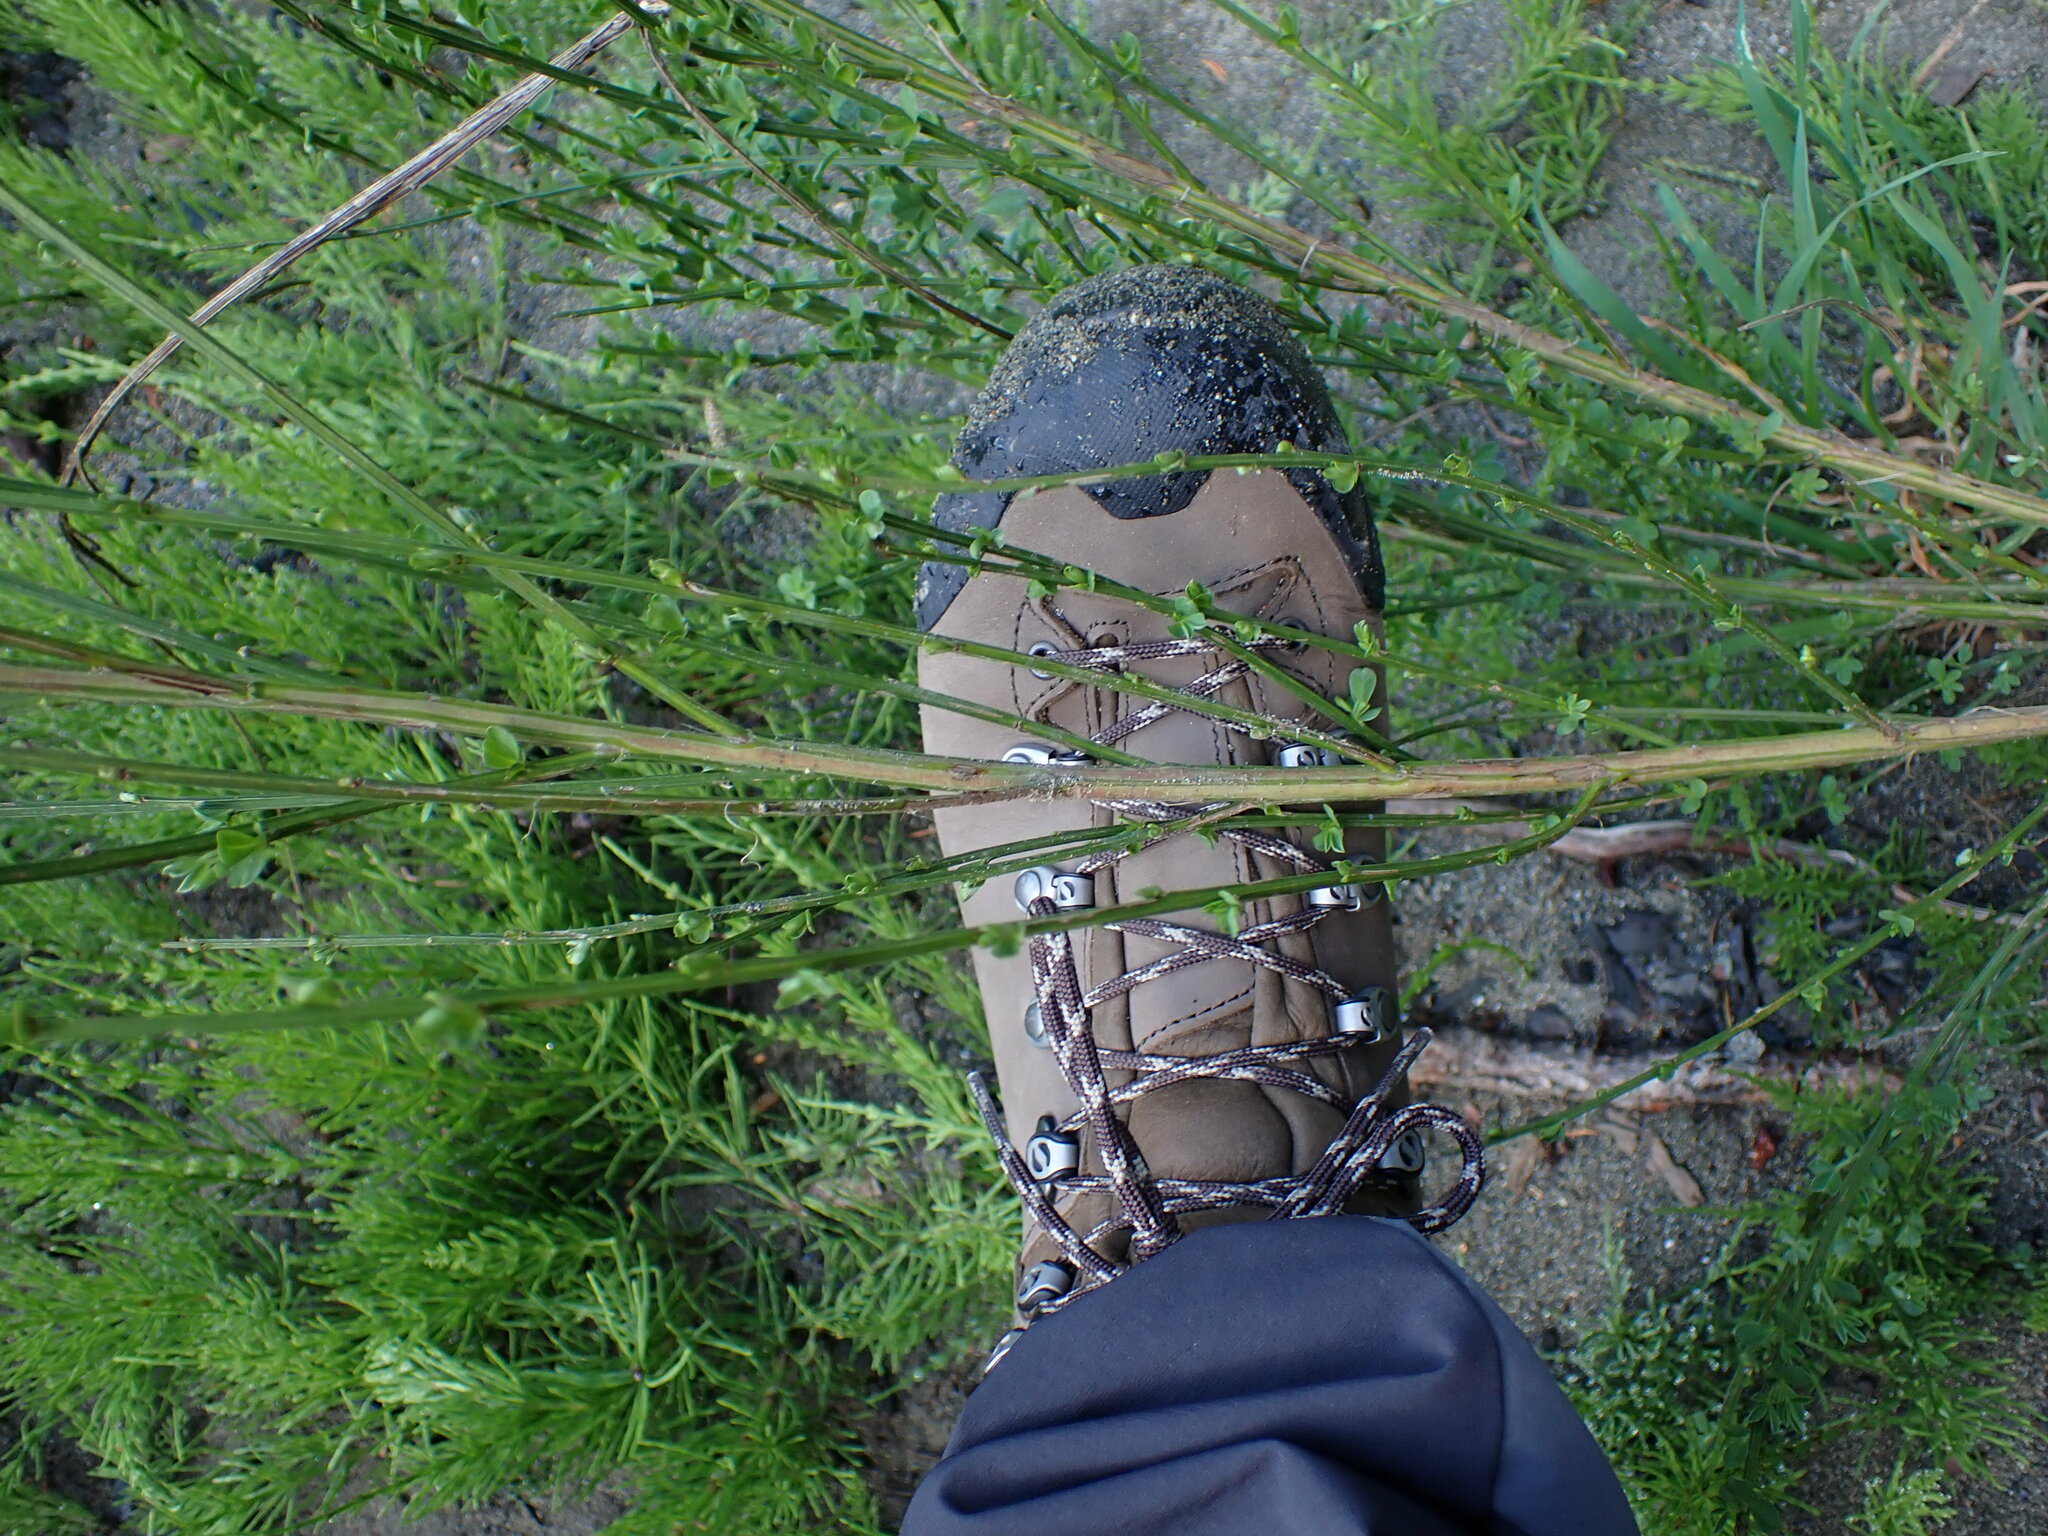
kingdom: Plantae
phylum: Tracheophyta
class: Magnoliopsida
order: Fabales
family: Fabaceae
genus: Cytisus
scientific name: Cytisus scoparius
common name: Scotch broom
